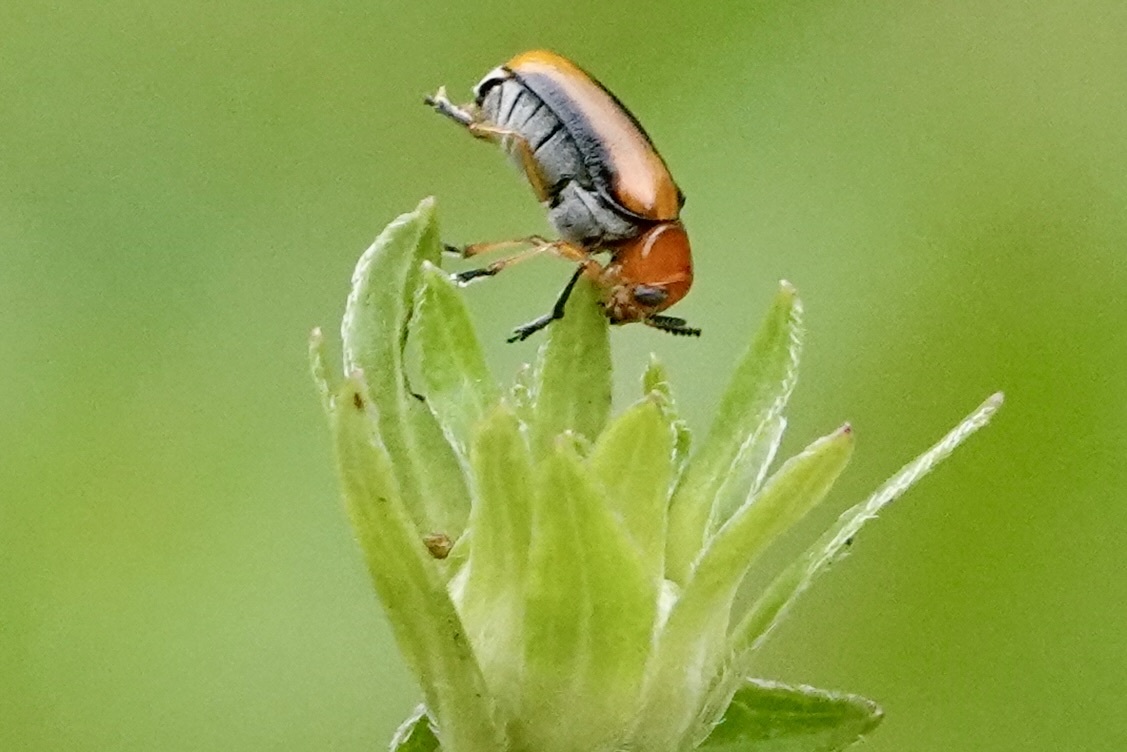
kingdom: Animalia
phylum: Arthropoda
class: Insecta
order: Coleoptera
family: Chrysomelidae
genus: Anomoea
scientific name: Anomoea laticlavia
